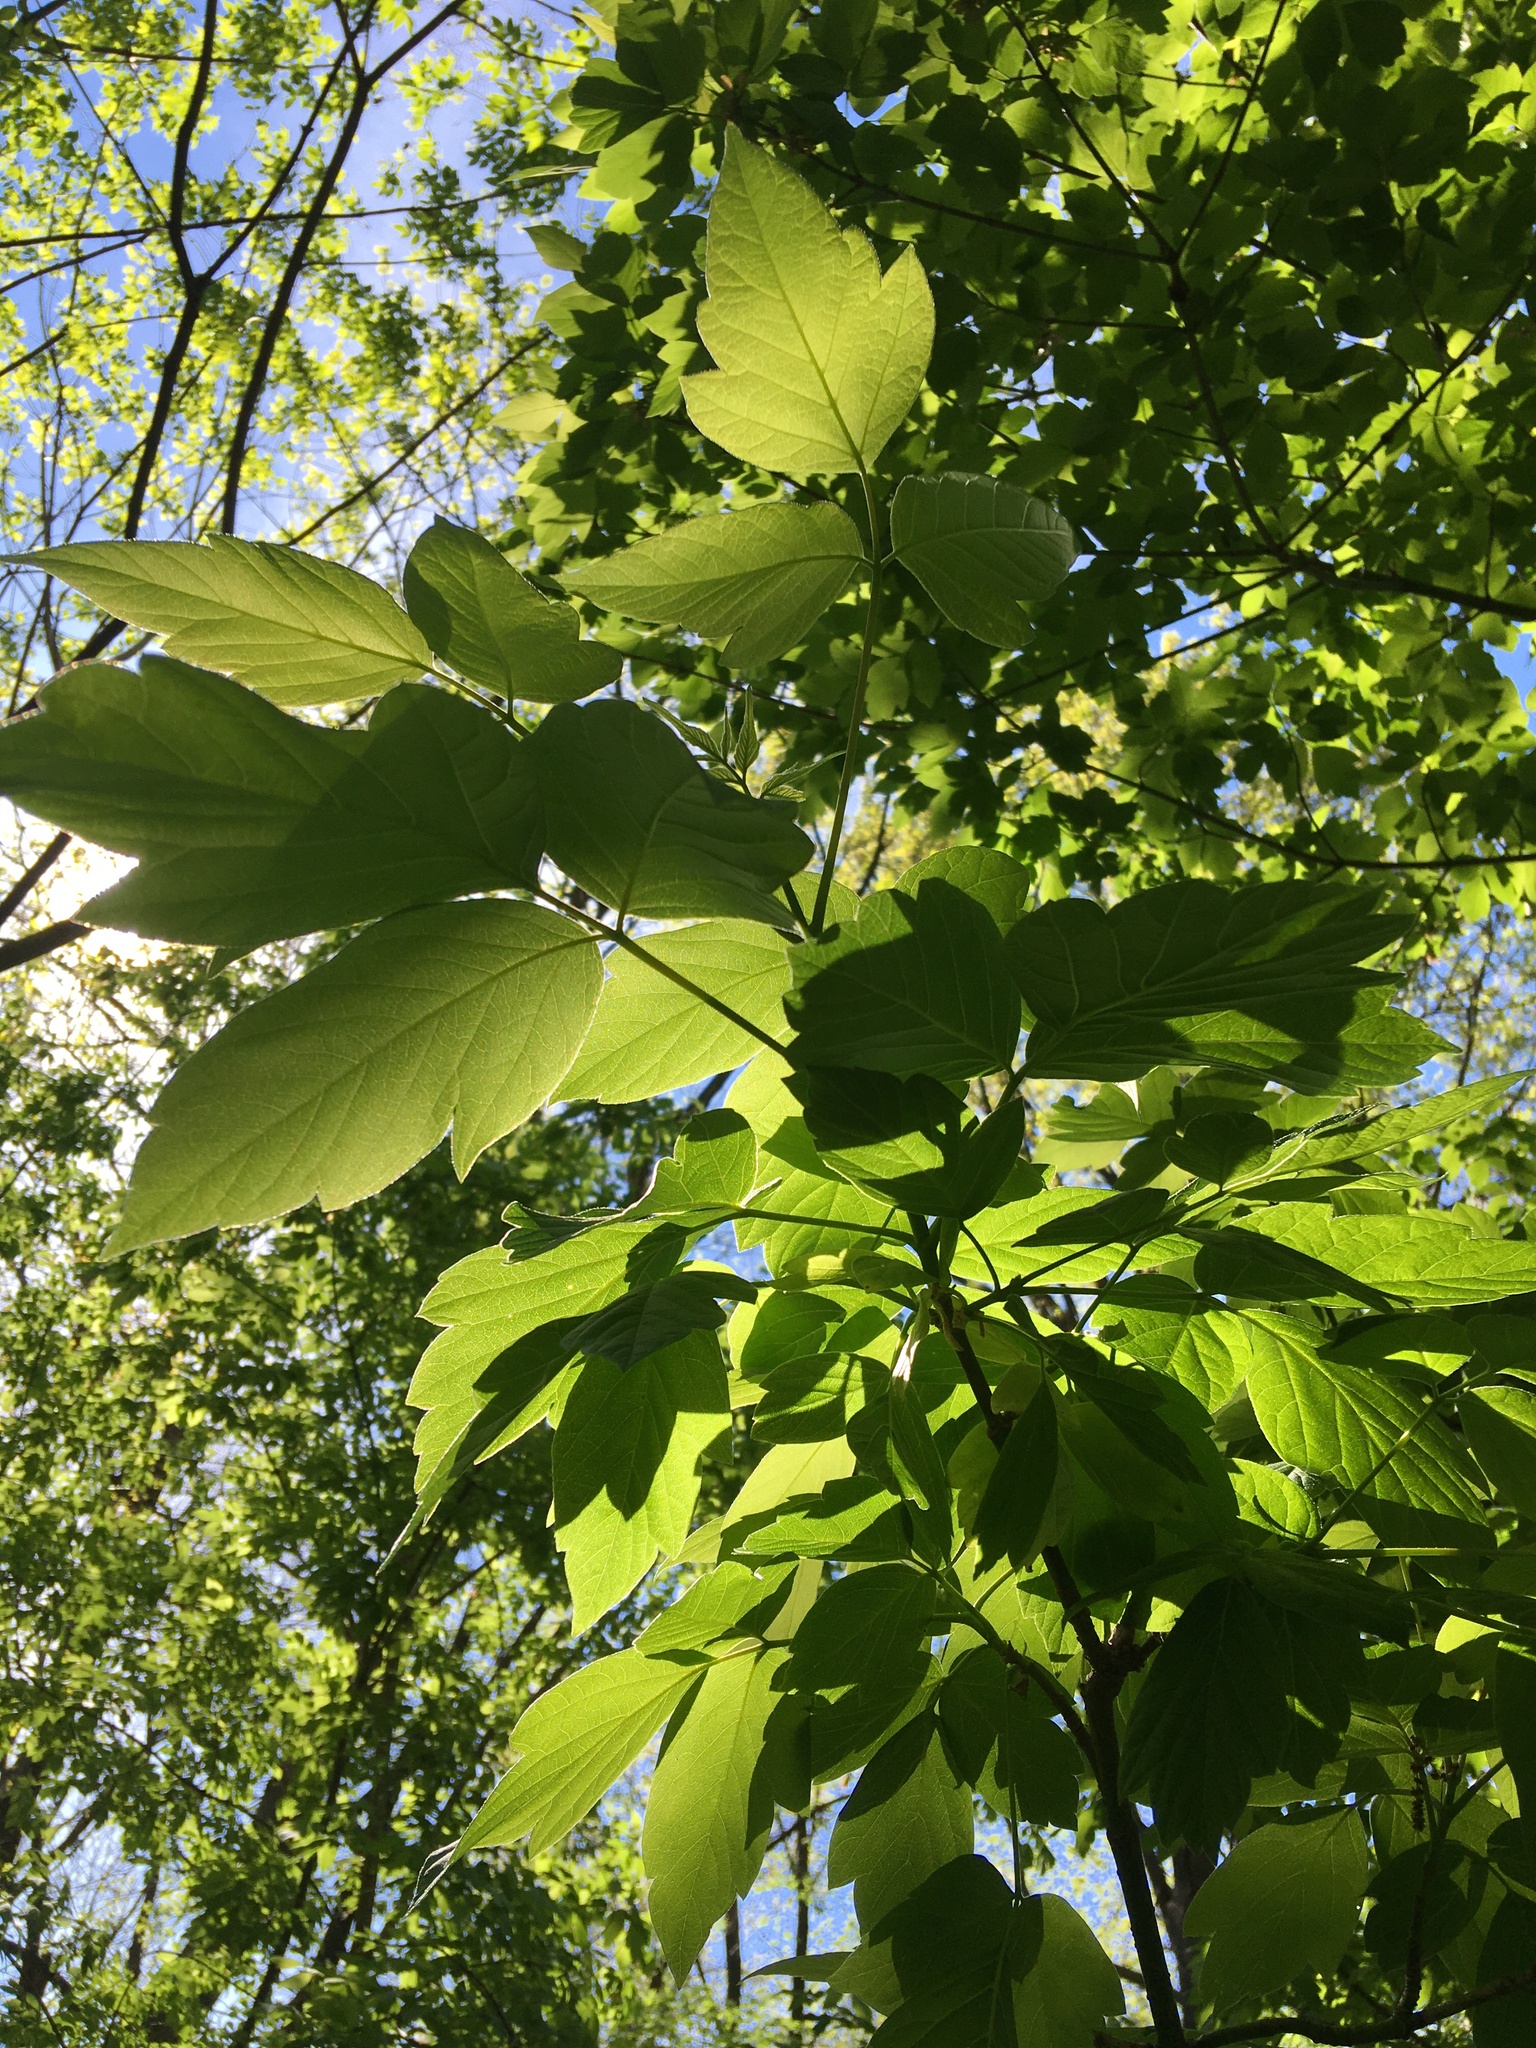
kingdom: Plantae
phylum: Tracheophyta
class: Magnoliopsida
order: Sapindales
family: Sapindaceae
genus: Acer
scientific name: Acer negundo
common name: Ashleaf maple
